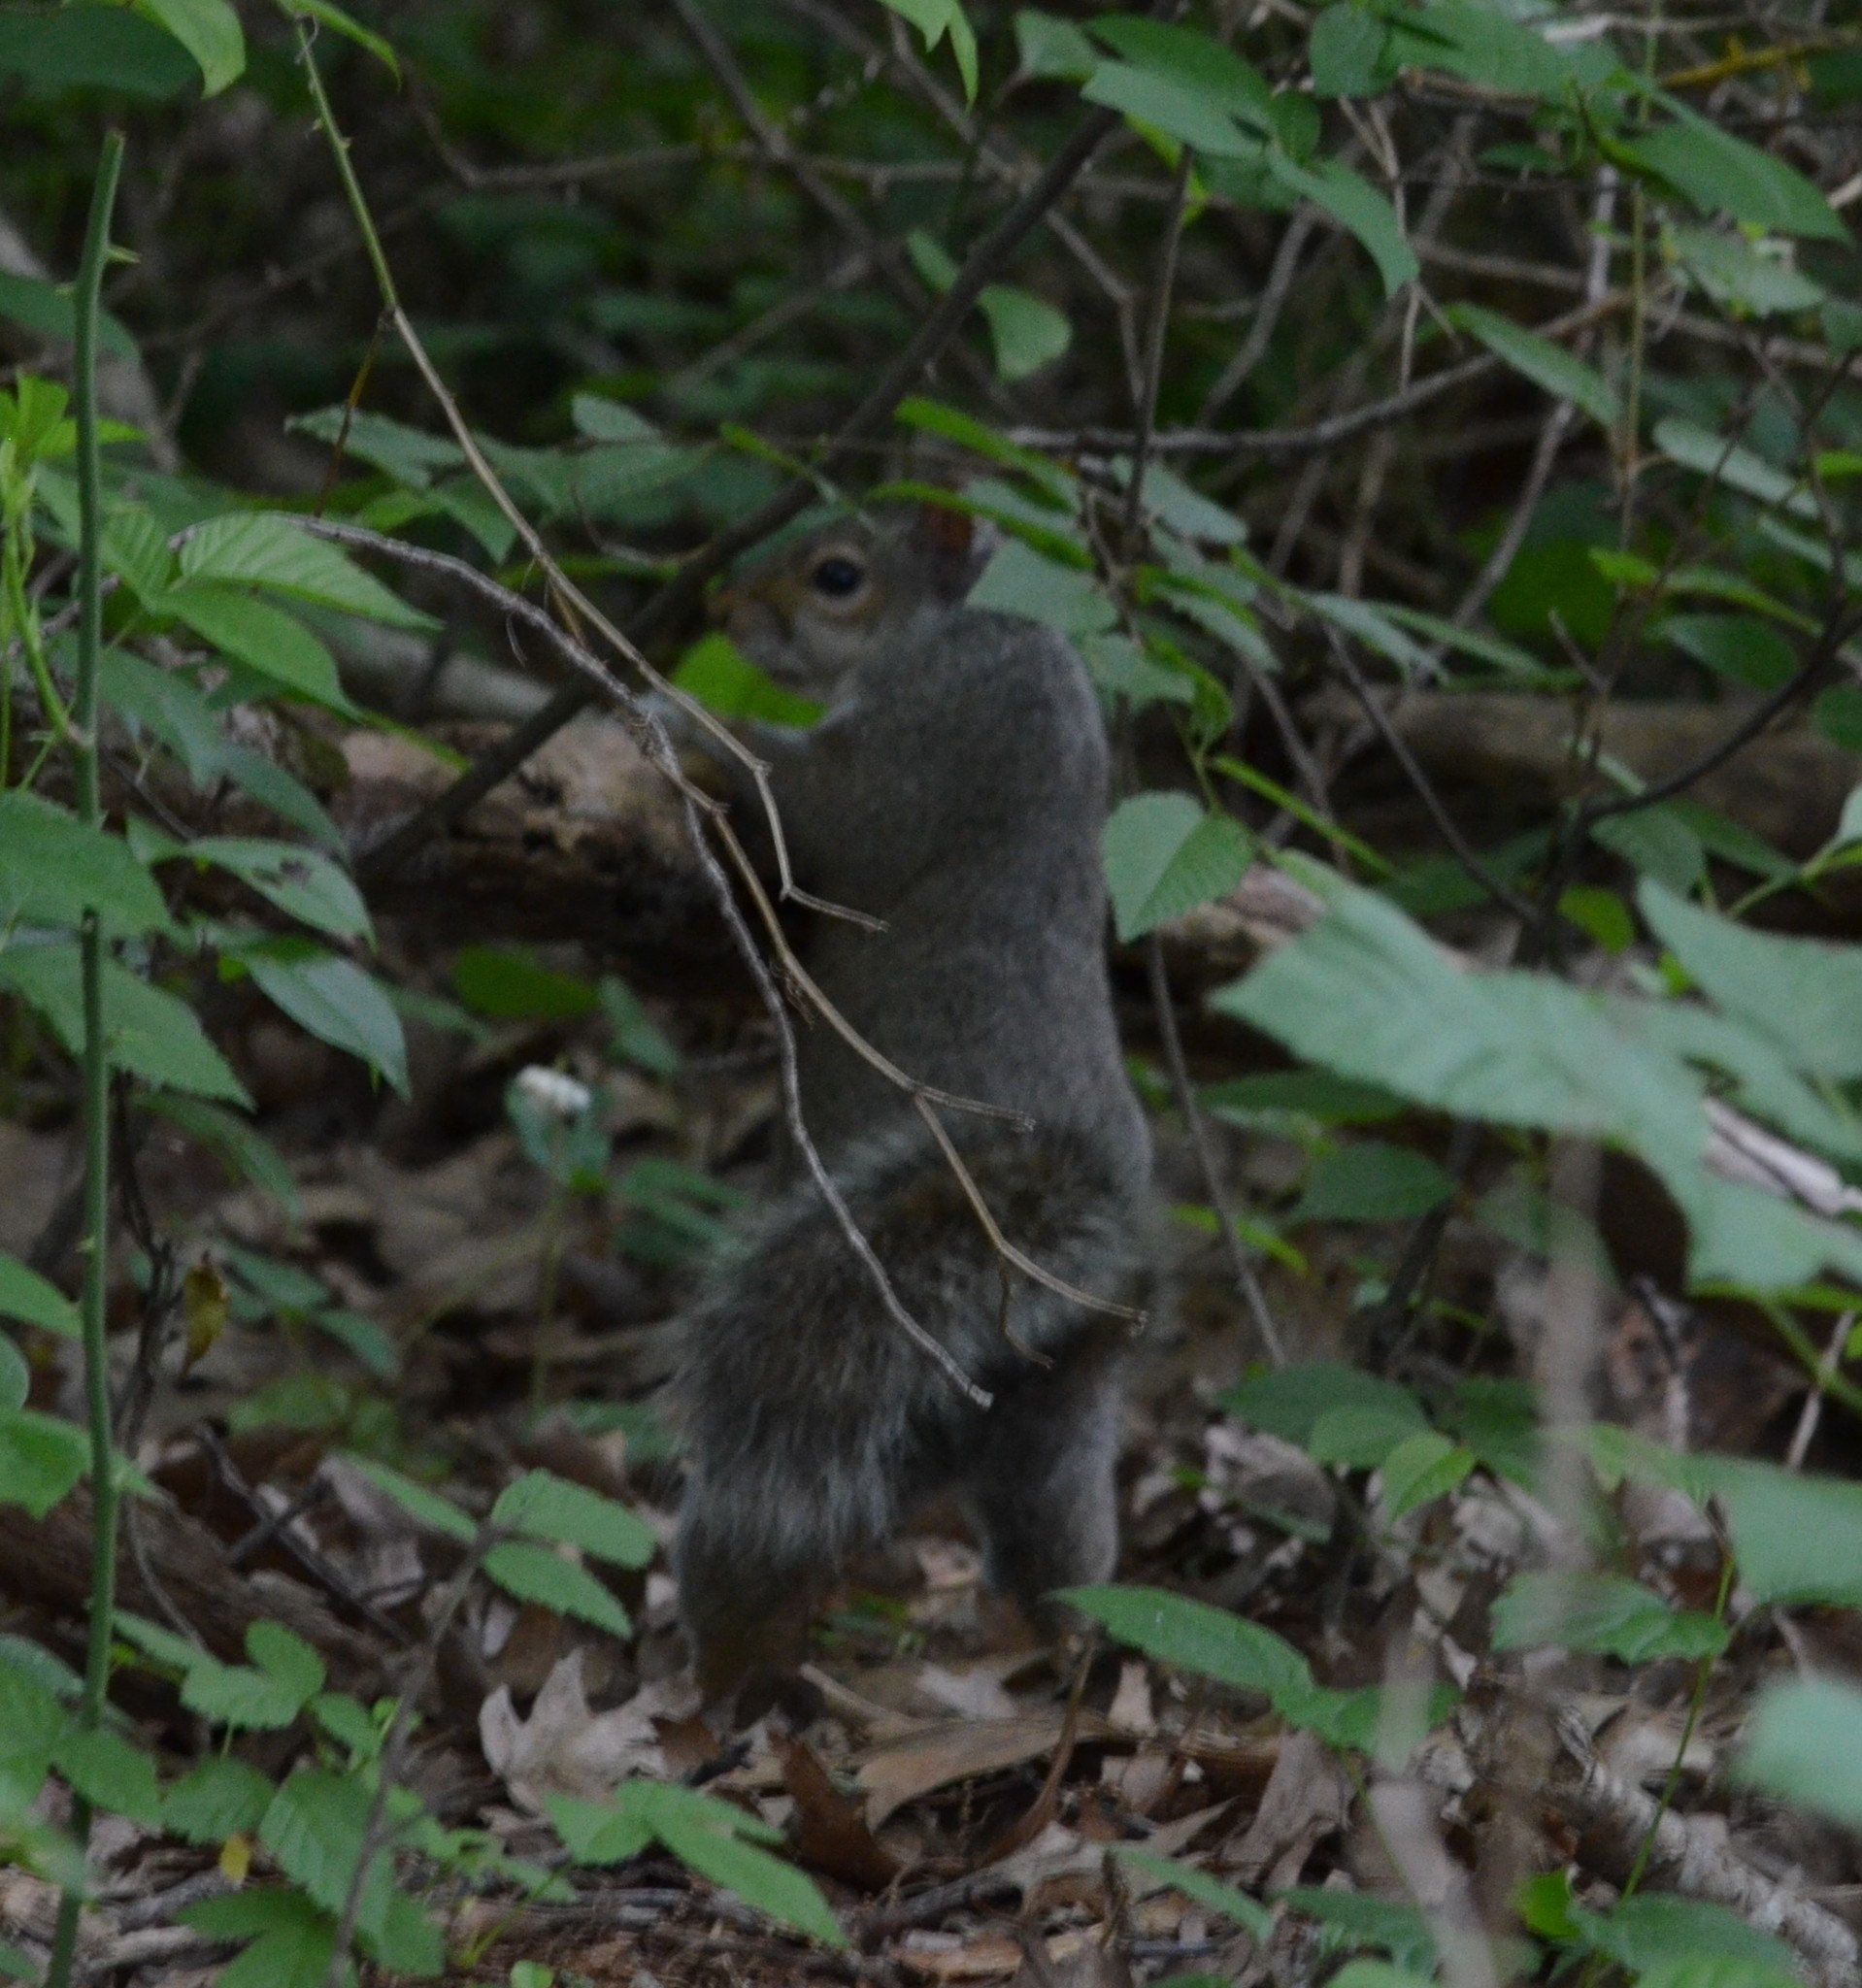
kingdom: Animalia
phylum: Chordata
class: Mammalia
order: Rodentia
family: Sciuridae
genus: Sciurus
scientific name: Sciurus carolinensis
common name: Eastern gray squirrel
